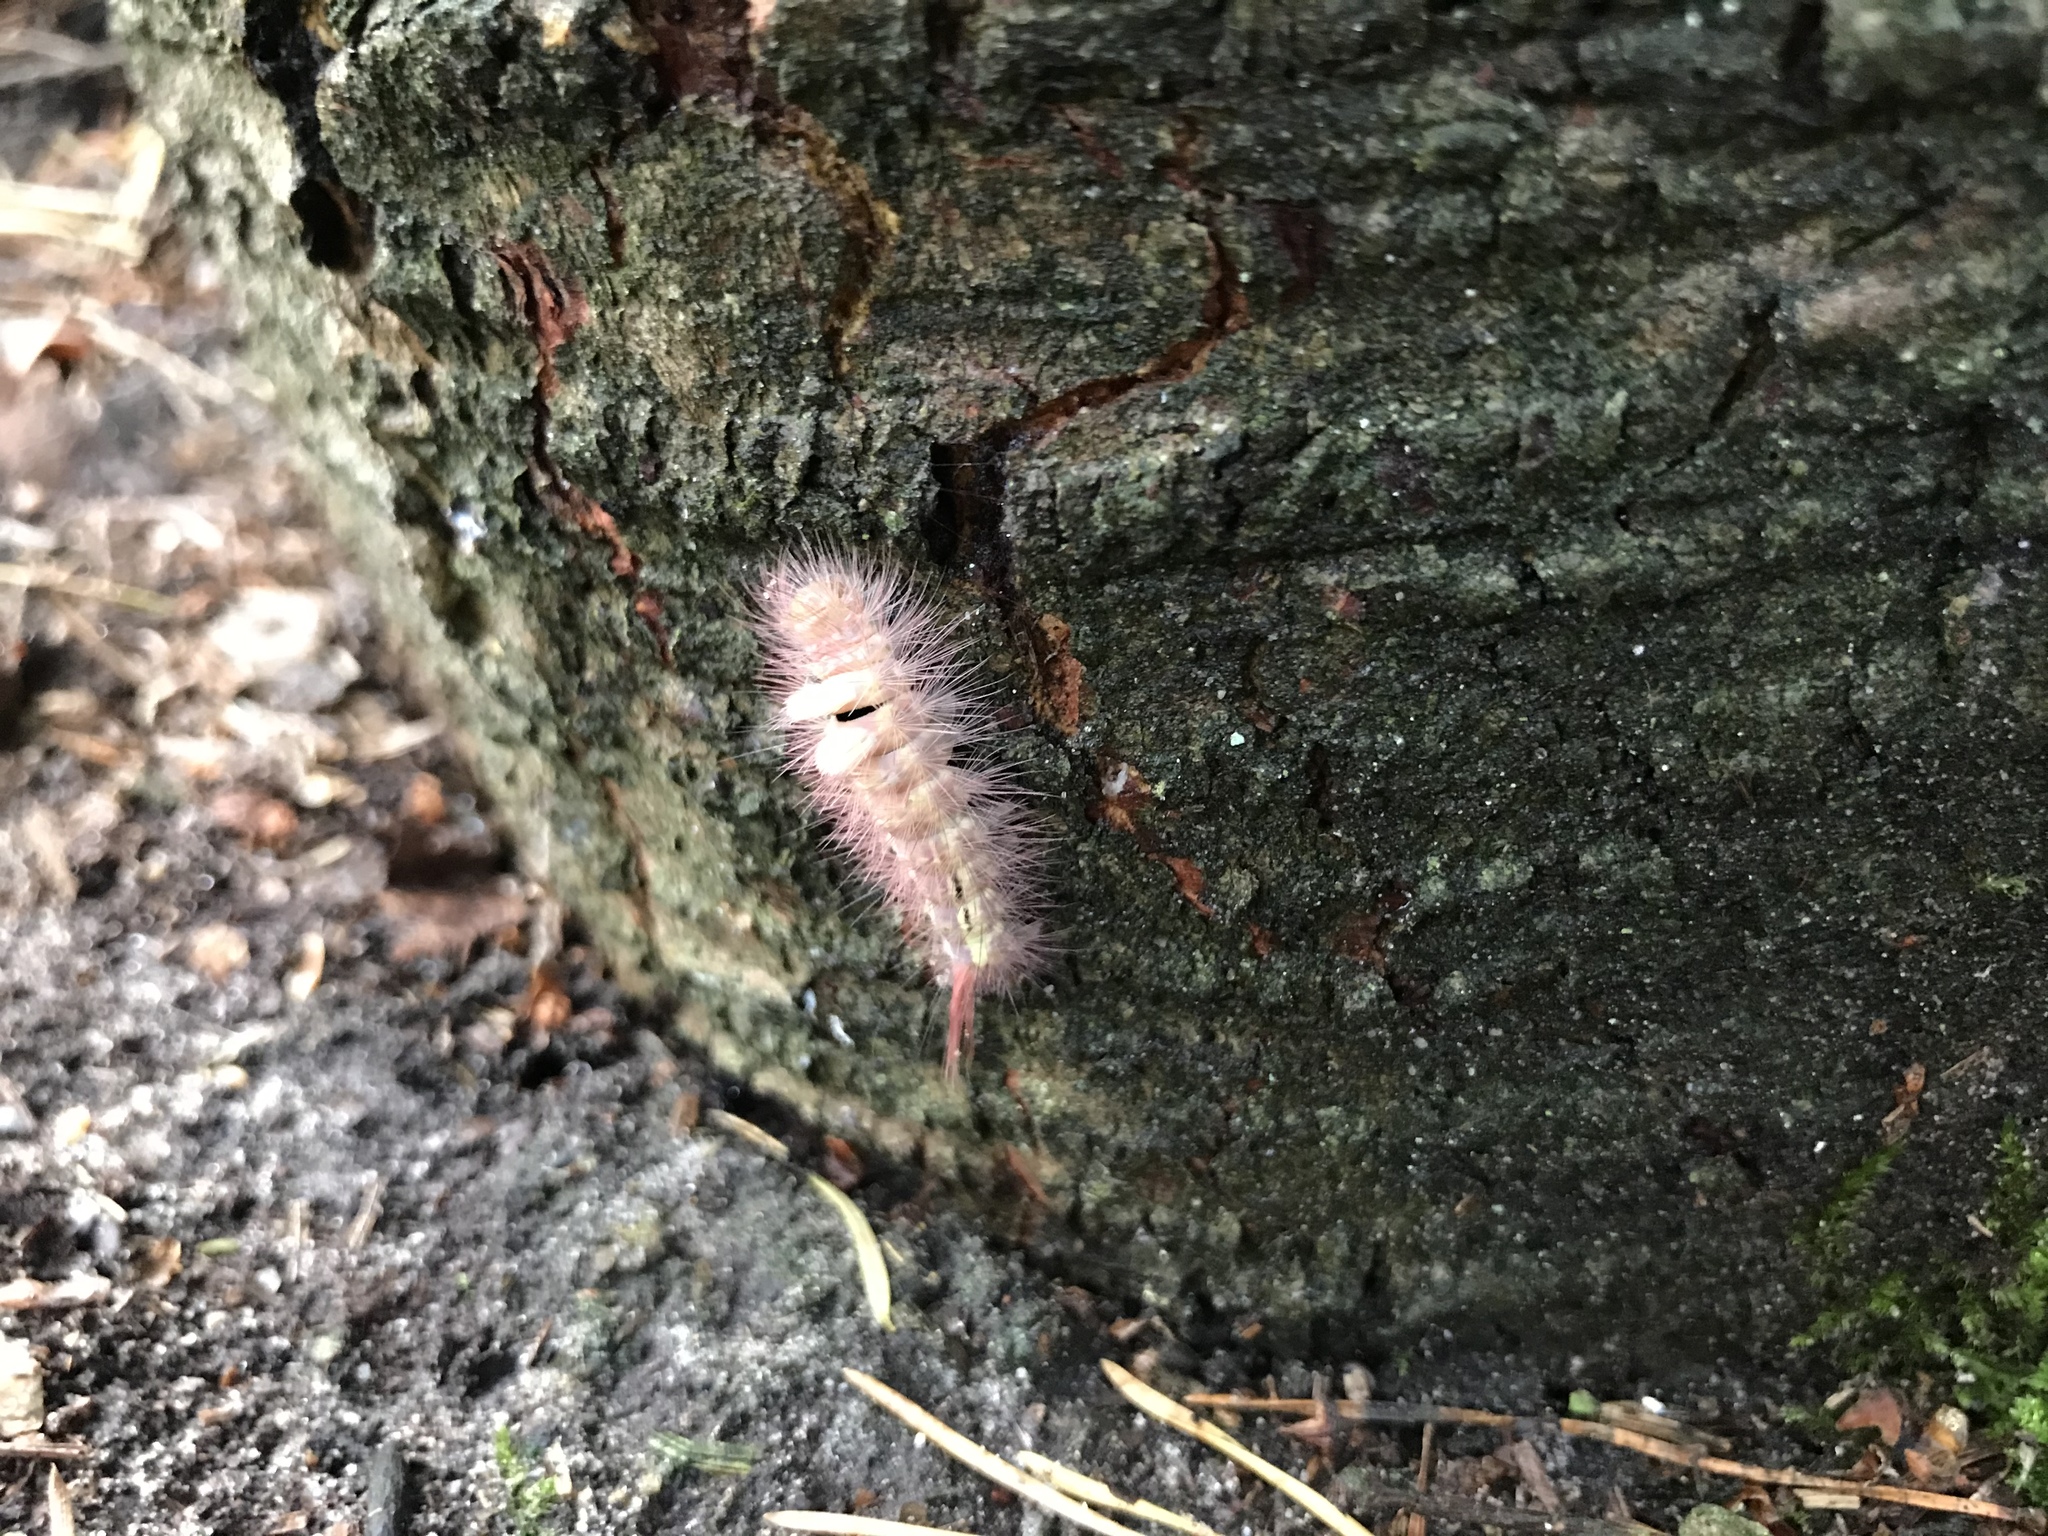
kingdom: Animalia
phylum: Arthropoda
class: Insecta
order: Lepidoptera
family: Erebidae
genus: Calliteara
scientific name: Calliteara pudibunda
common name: Pale tussock
